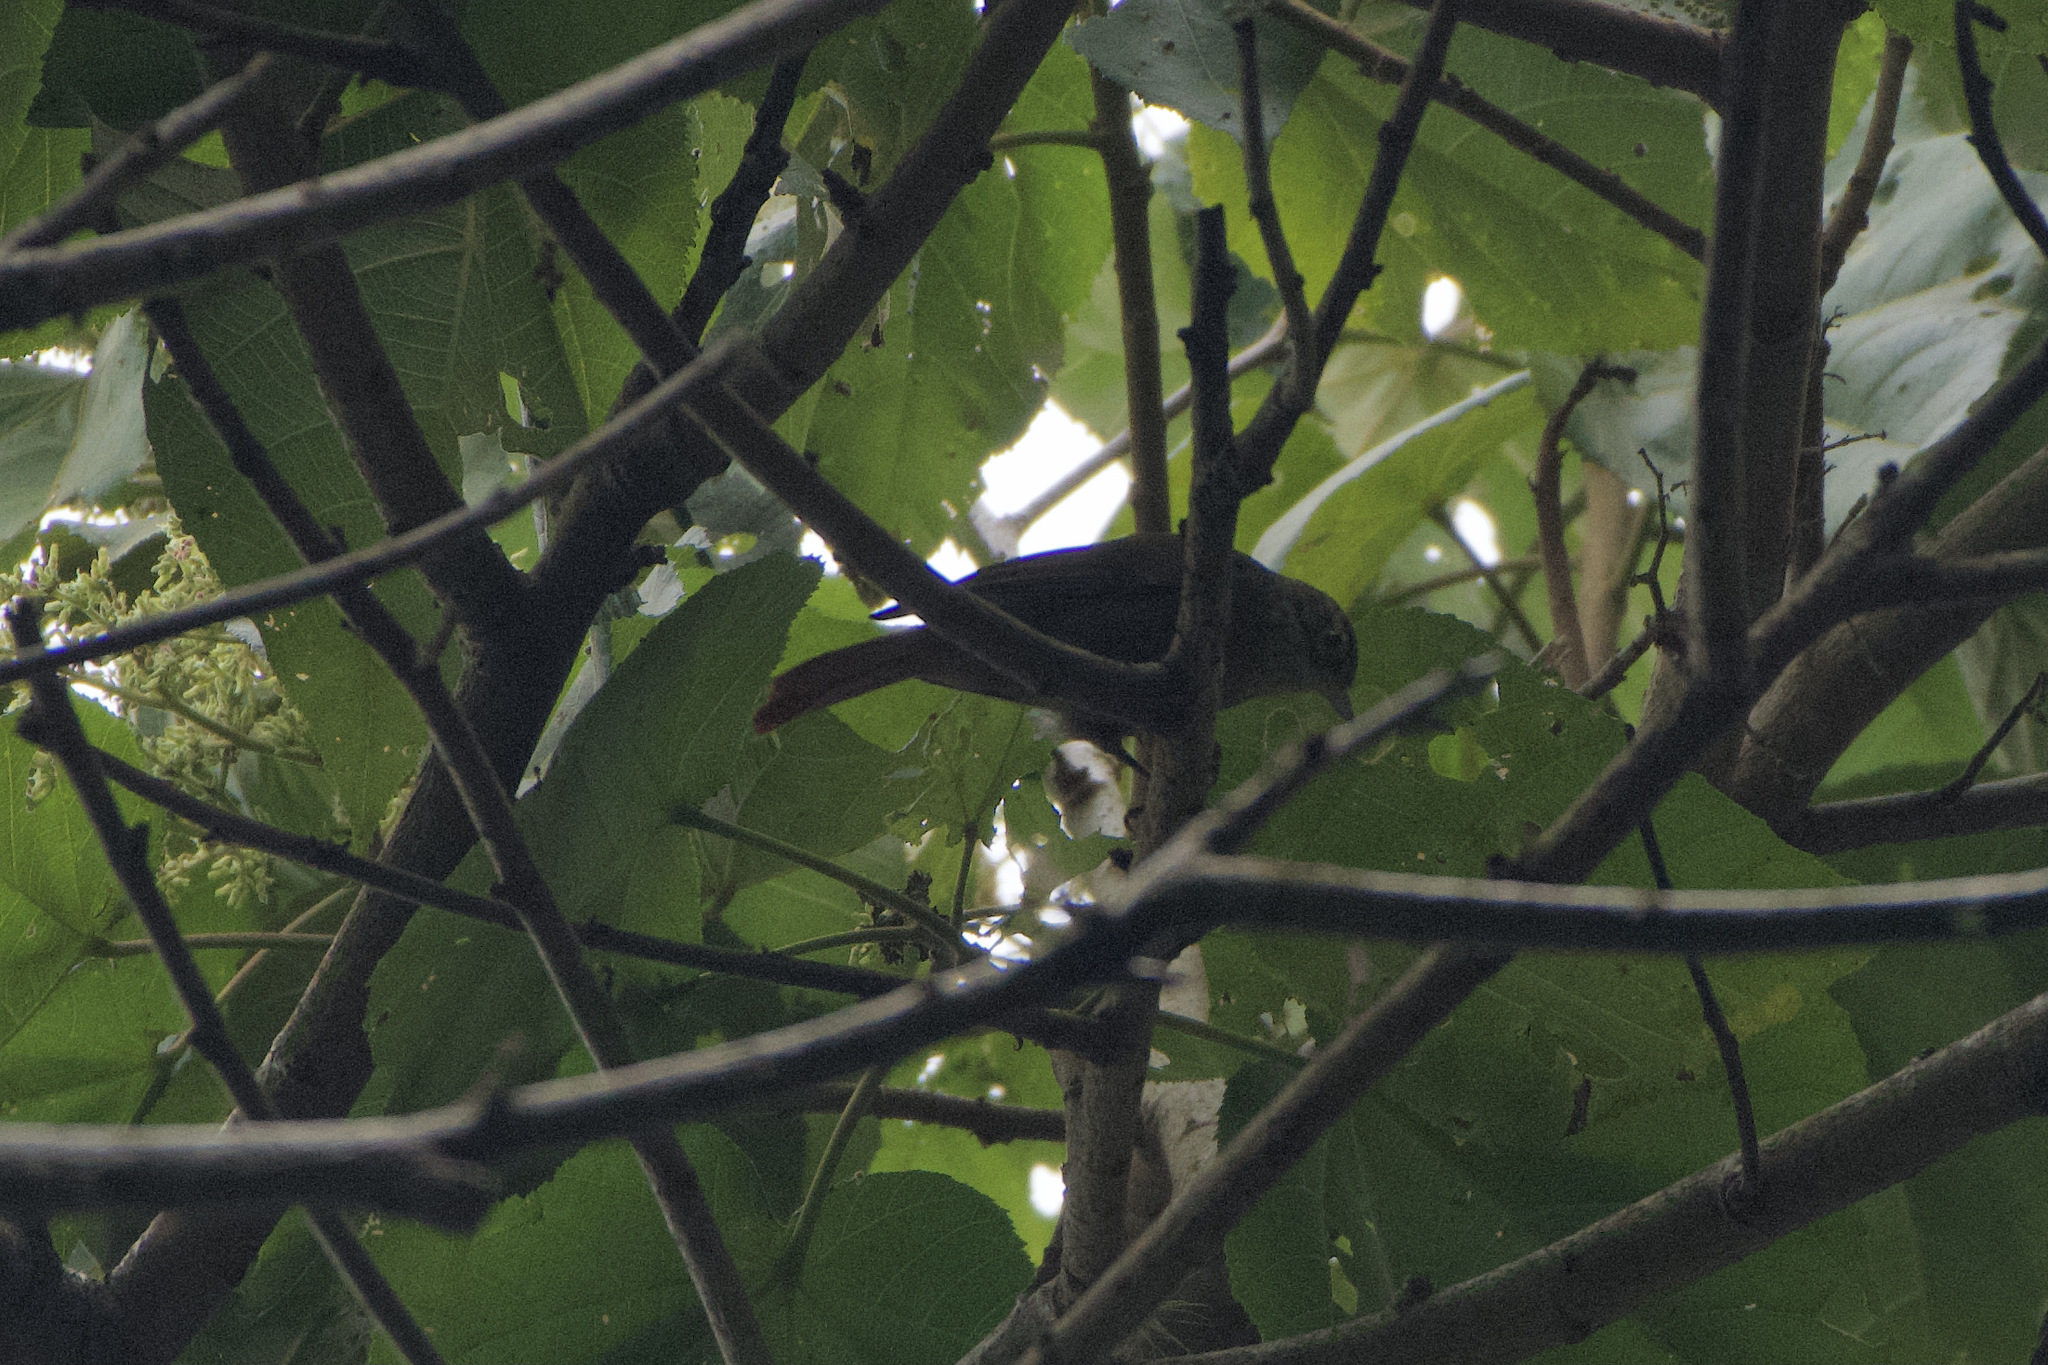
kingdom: Animalia
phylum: Chordata
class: Aves
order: Passeriformes
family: Furnariidae
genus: Anabacerthia
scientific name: Anabacerthia variegaticeps
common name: Scaly-throated foliage-gleaner
